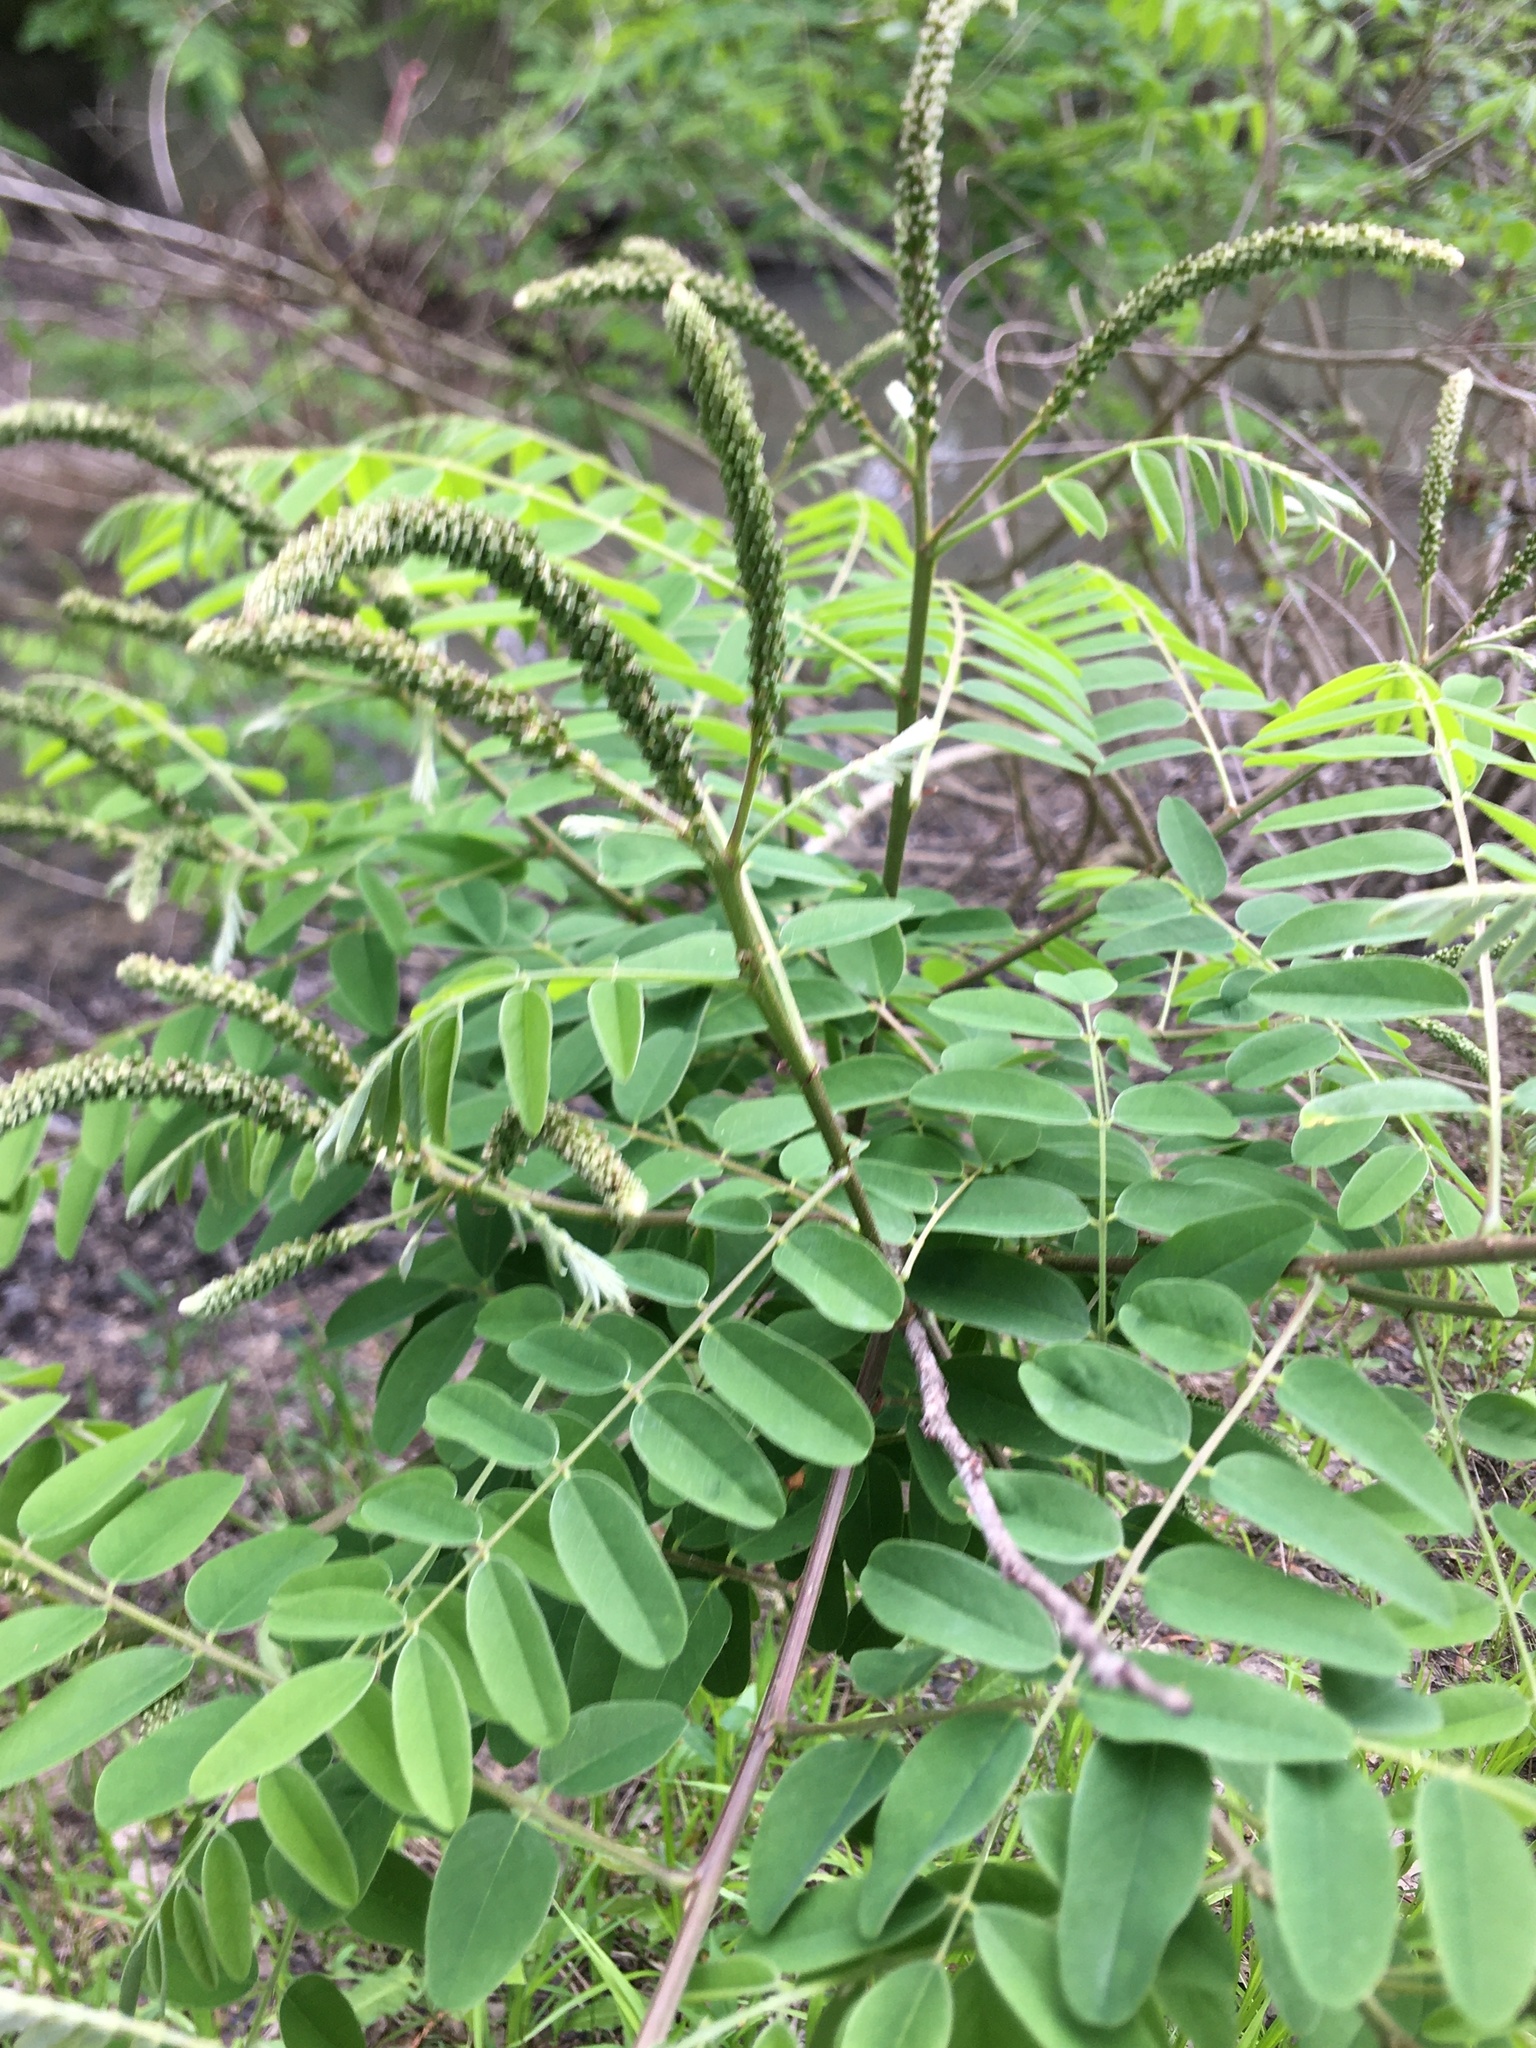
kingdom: Plantae
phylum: Tracheophyta
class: Magnoliopsida
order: Fabales
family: Fabaceae
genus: Amorpha
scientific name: Amorpha fruticosa
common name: False indigo
